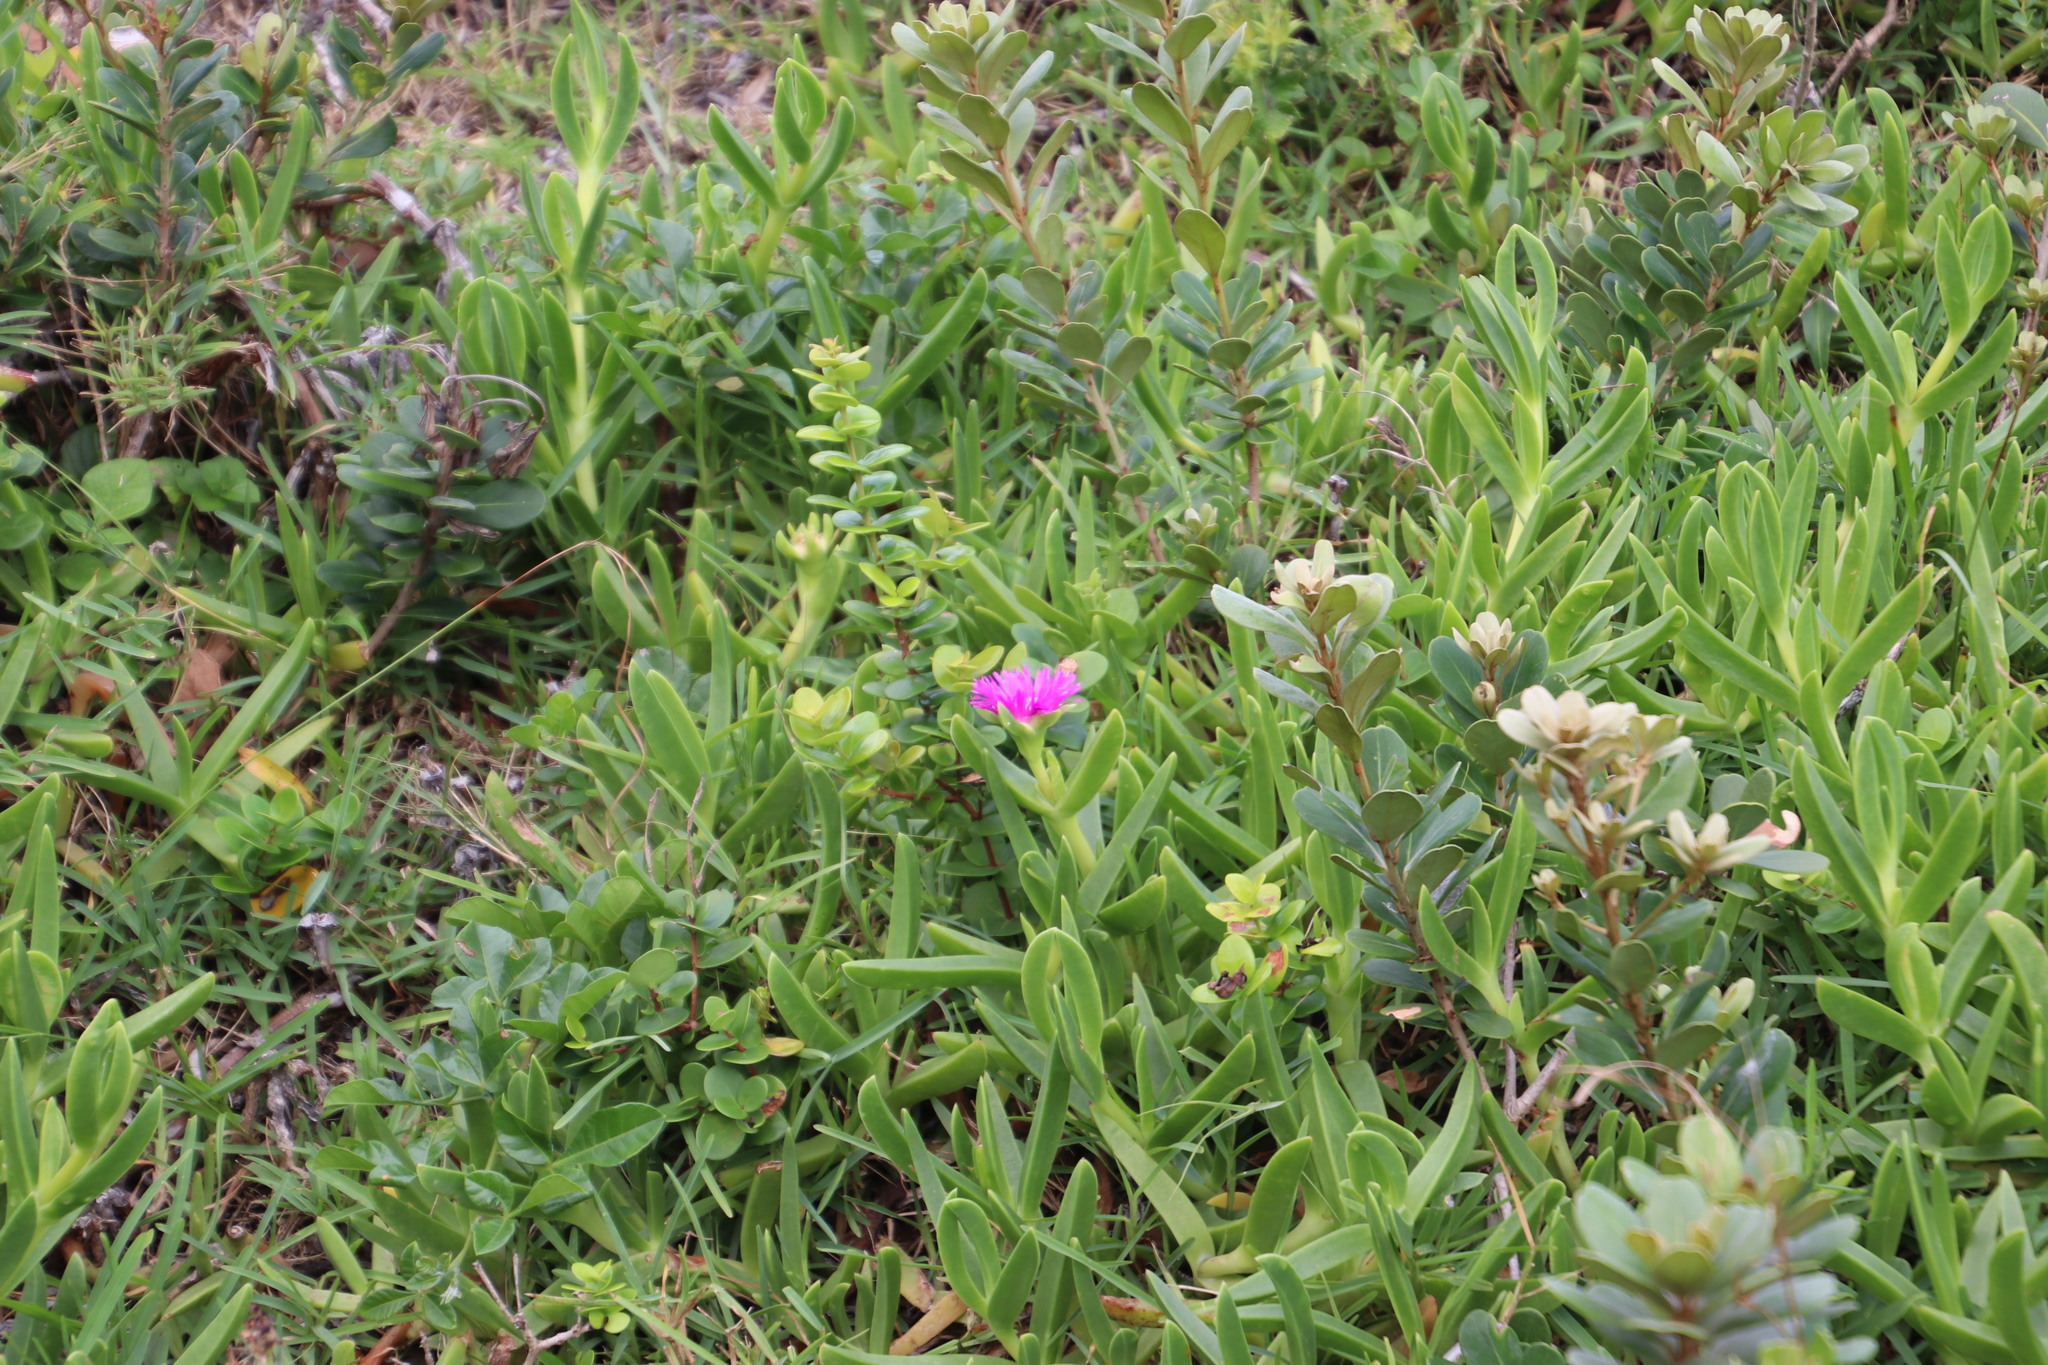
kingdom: Plantae
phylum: Tracheophyta
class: Magnoliopsida
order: Caryophyllales
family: Aizoaceae
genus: Carpobrotus
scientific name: Carpobrotus dimidiatus
